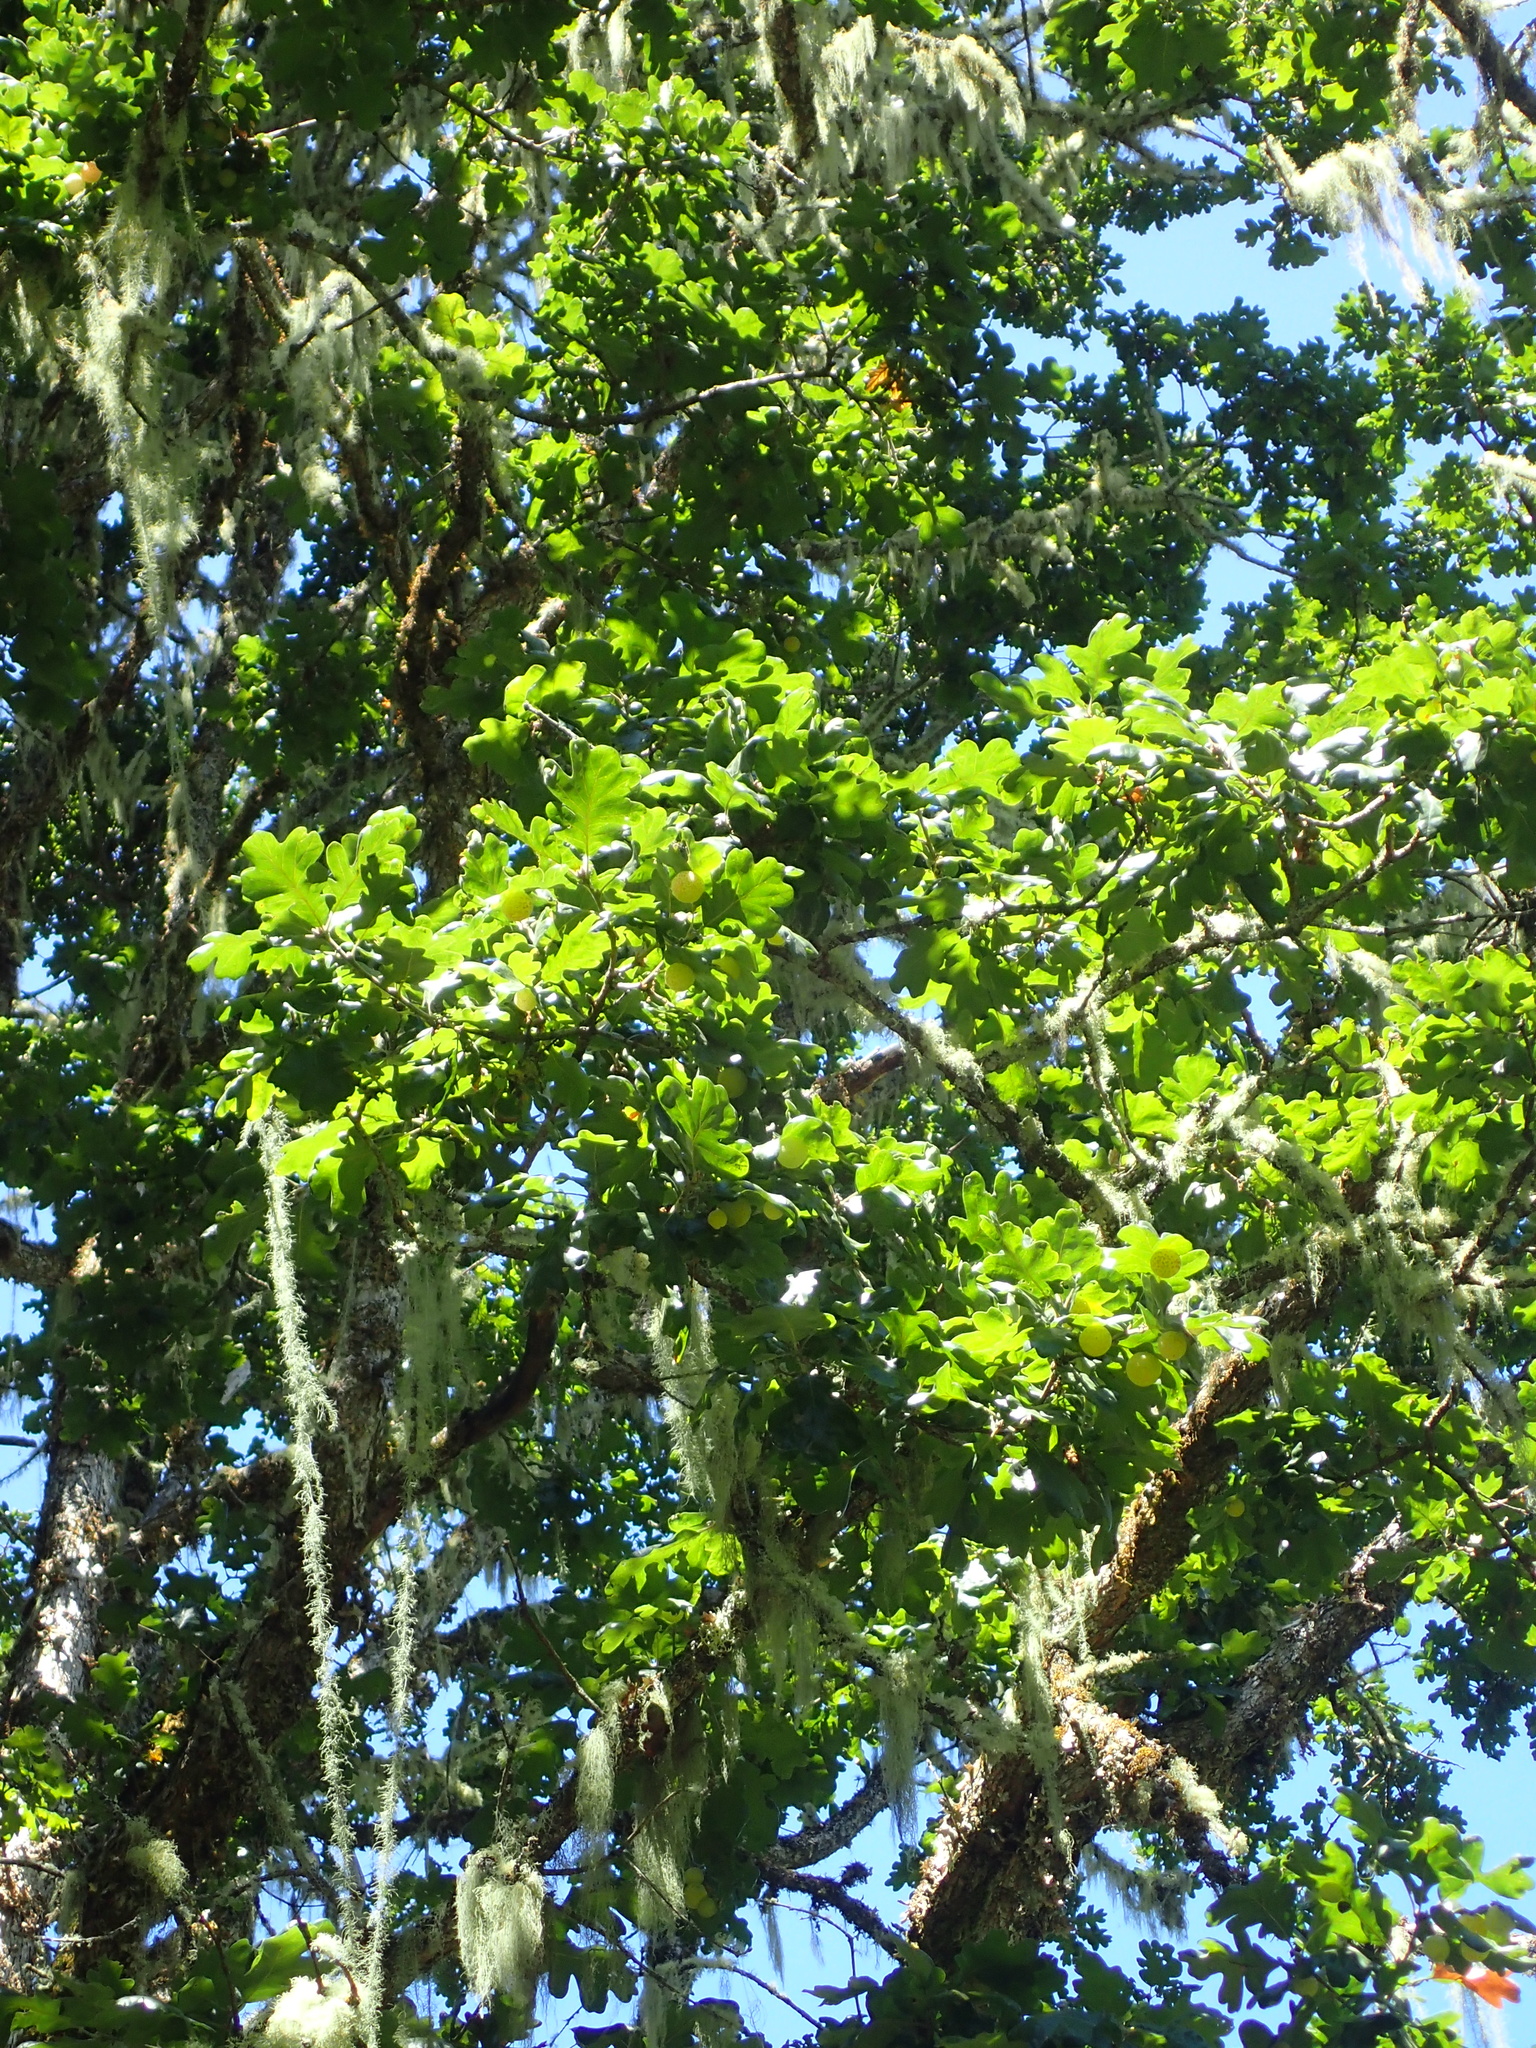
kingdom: Plantae
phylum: Tracheophyta
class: Magnoliopsida
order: Fagales
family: Fagaceae
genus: Quercus
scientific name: Quercus garryana
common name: Garry oak
